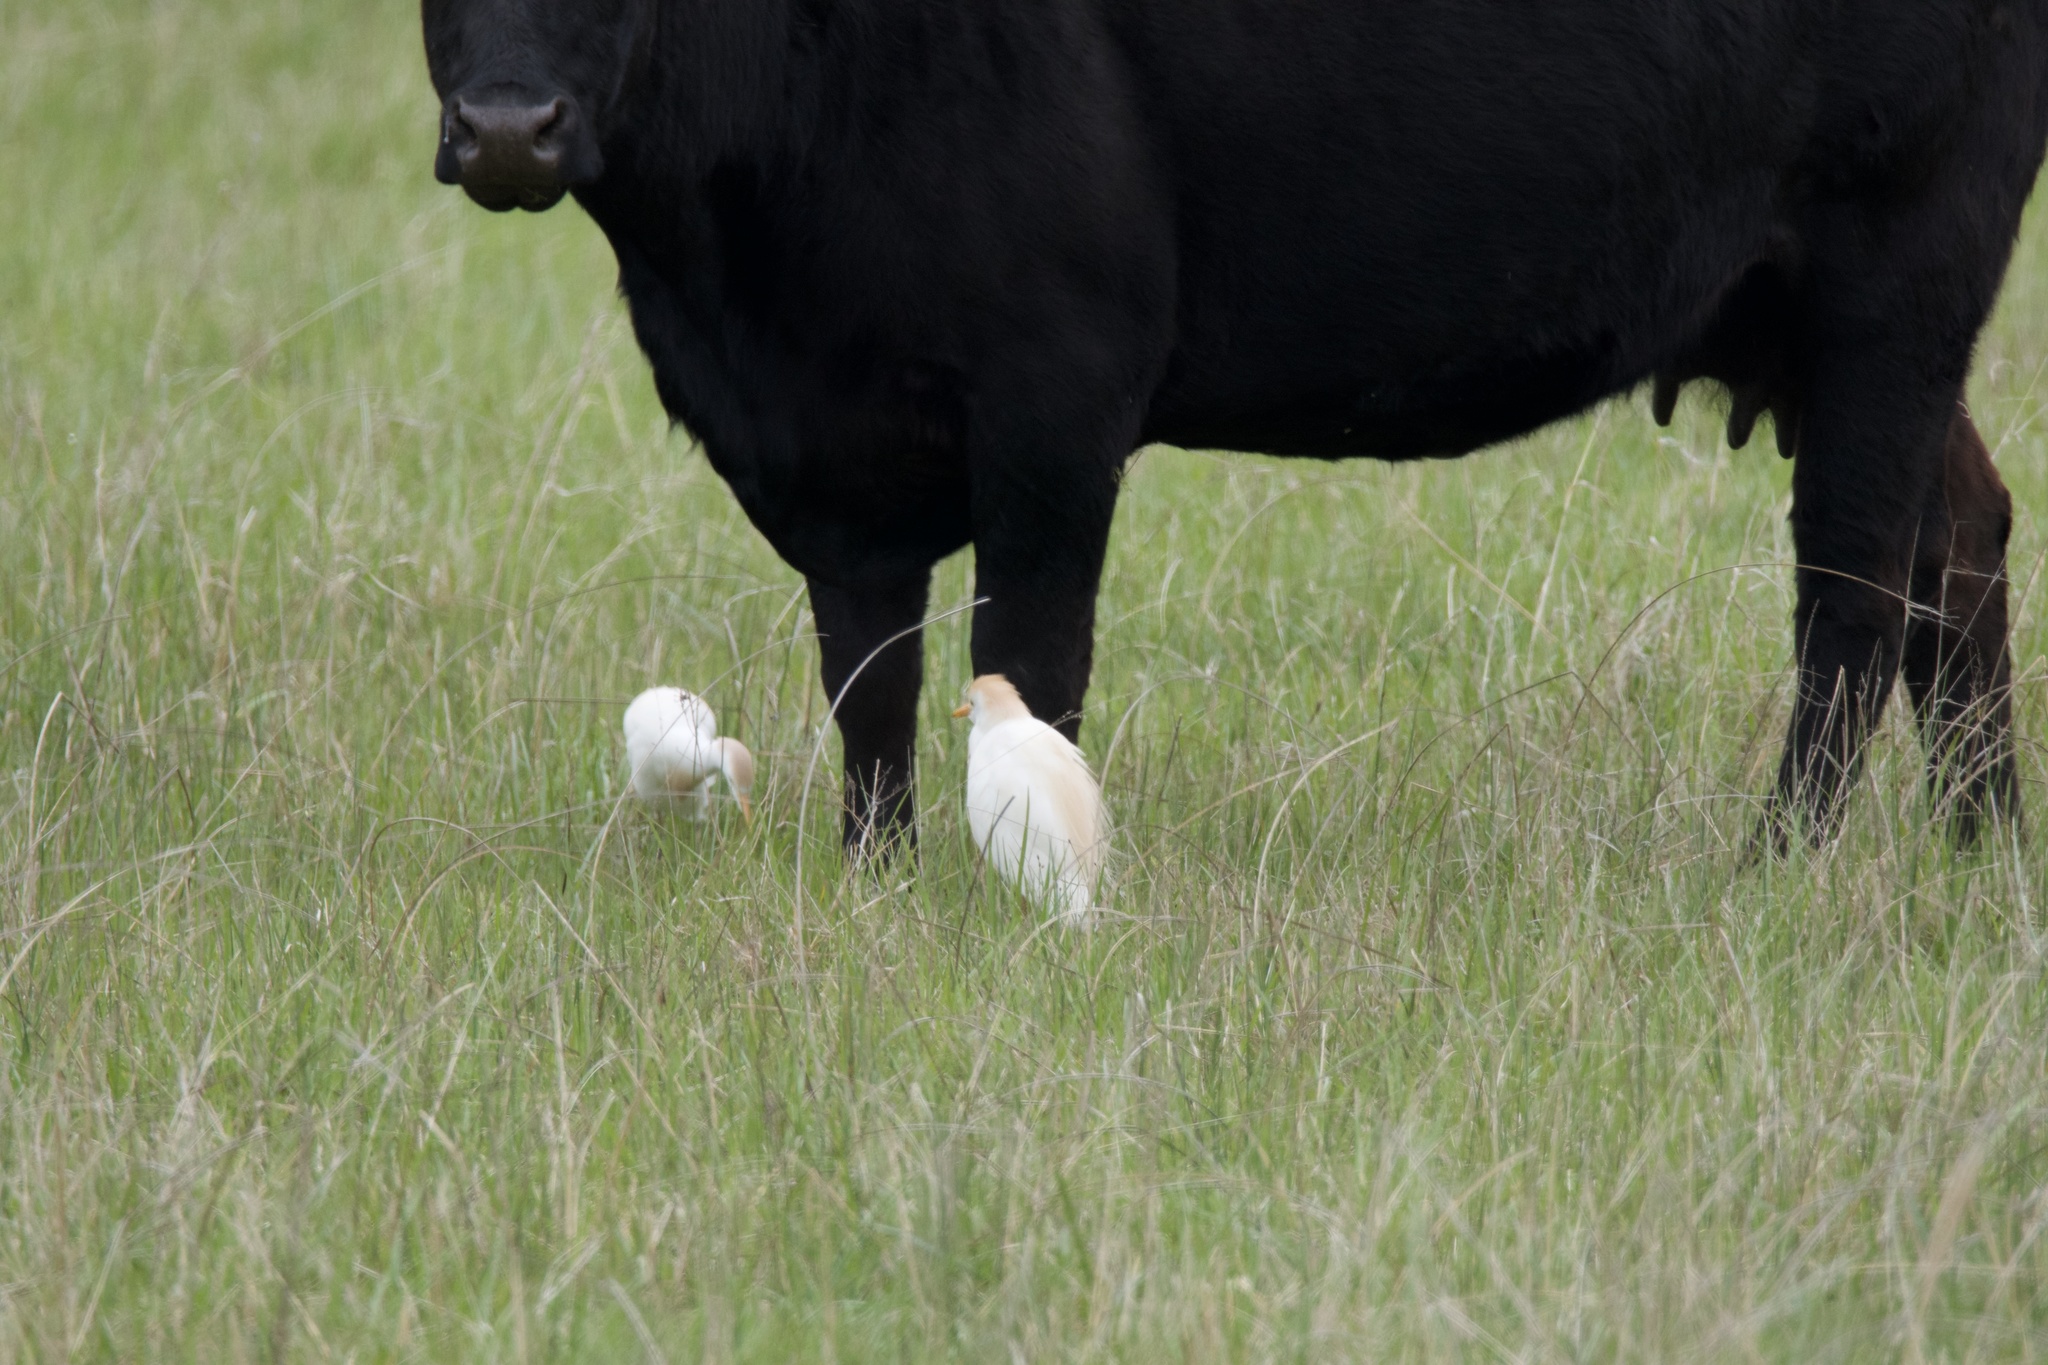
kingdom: Animalia
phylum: Chordata
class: Aves
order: Pelecaniformes
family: Ardeidae
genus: Bubulcus
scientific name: Bubulcus ibis
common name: Cattle egret
